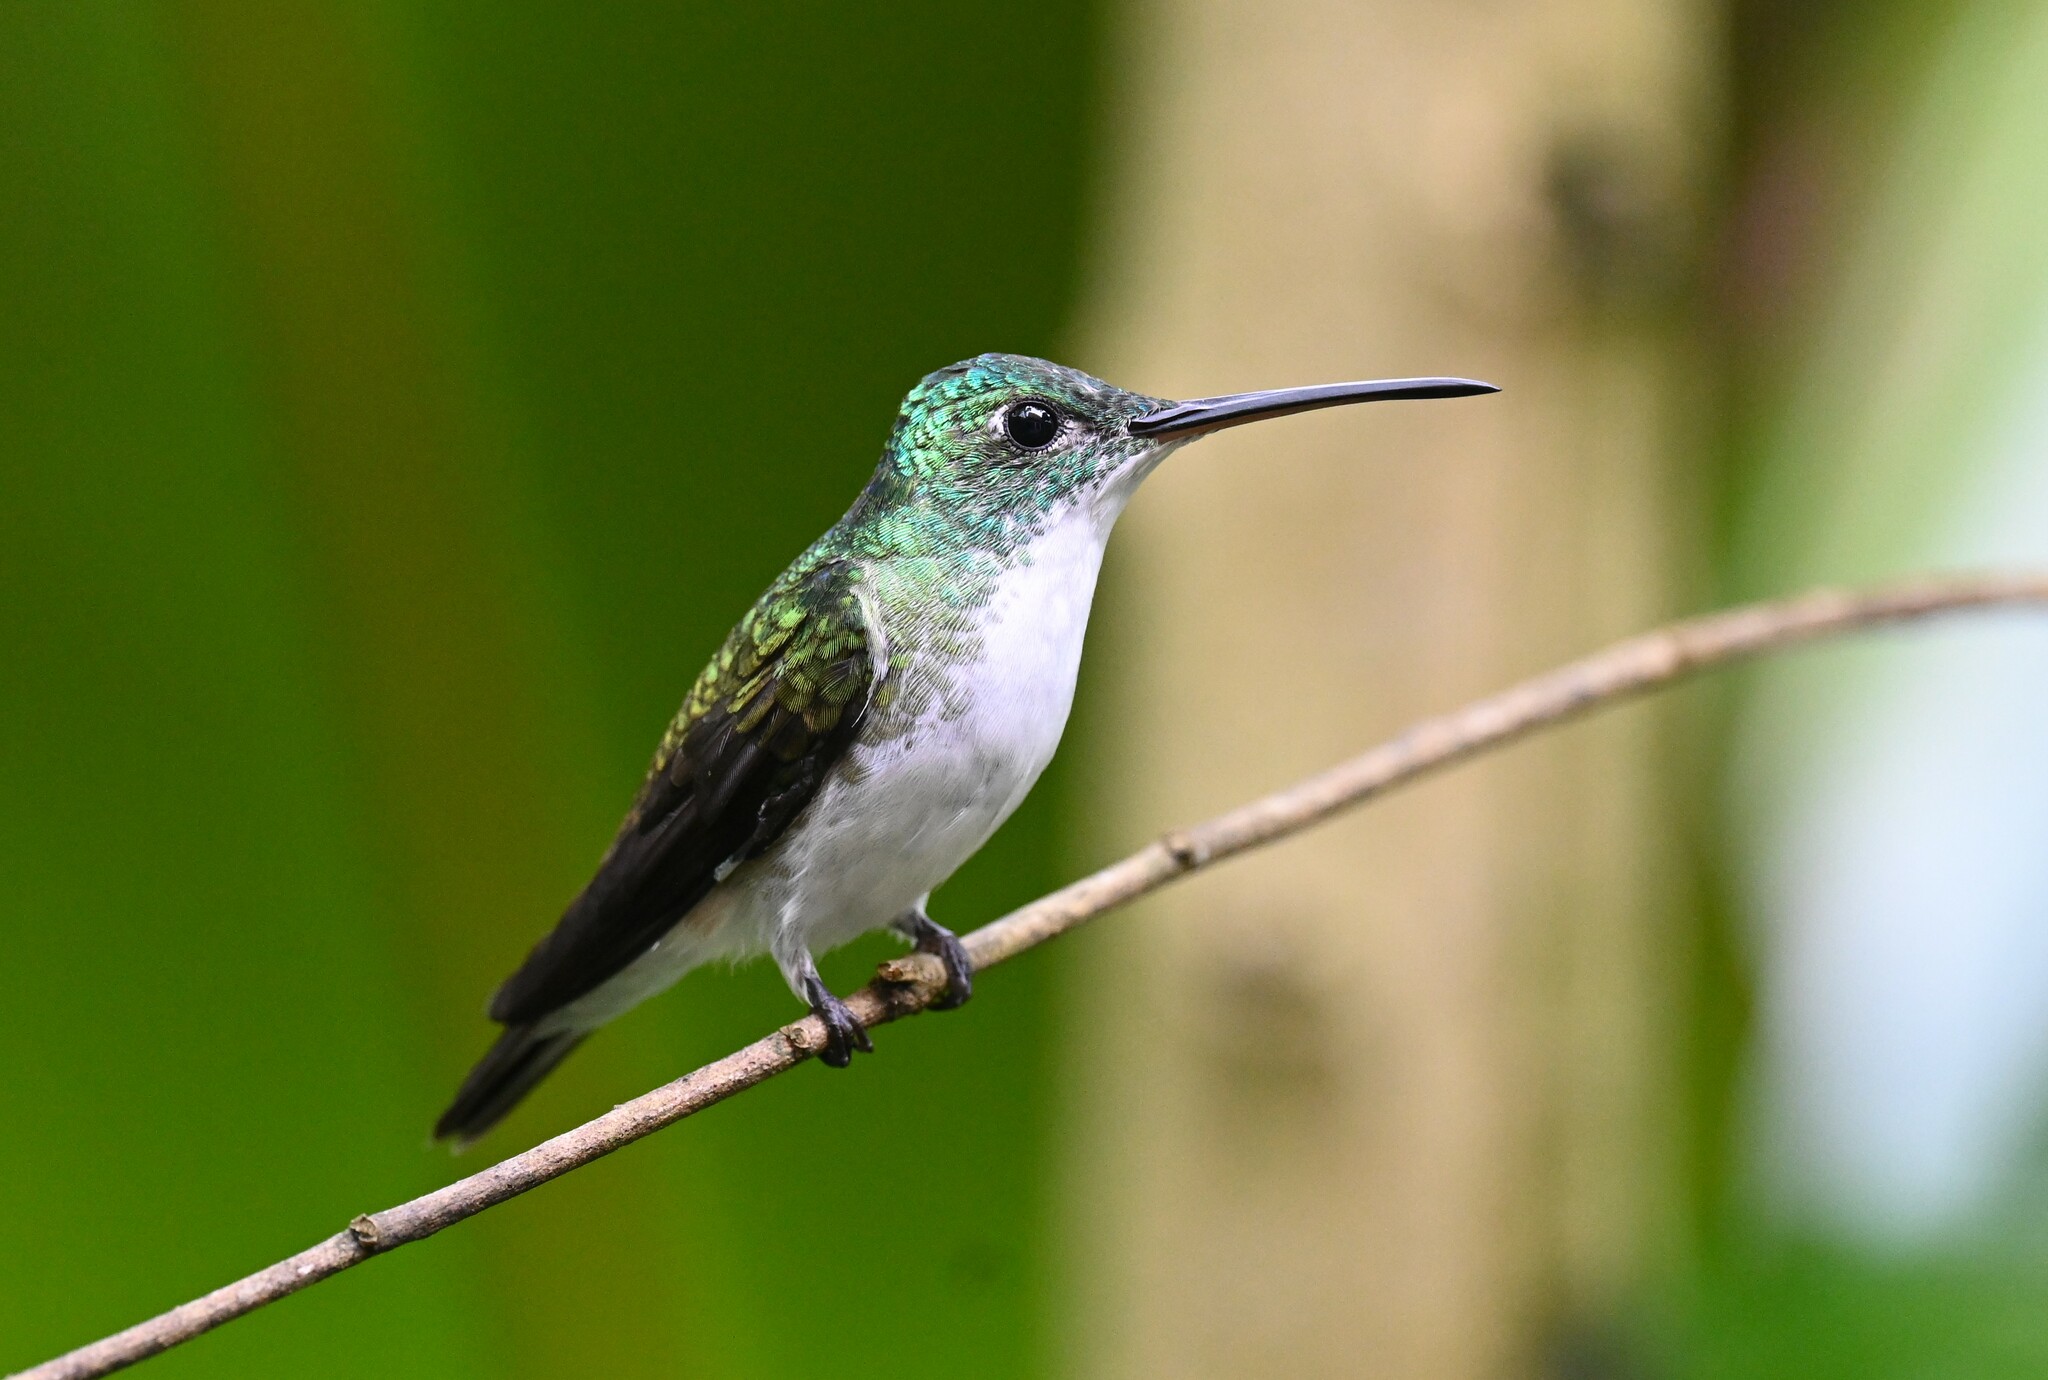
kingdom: Animalia
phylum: Chordata
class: Aves
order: Apodiformes
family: Trochilidae
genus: Uranomitra
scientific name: Uranomitra franciae
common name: Andean emerald
